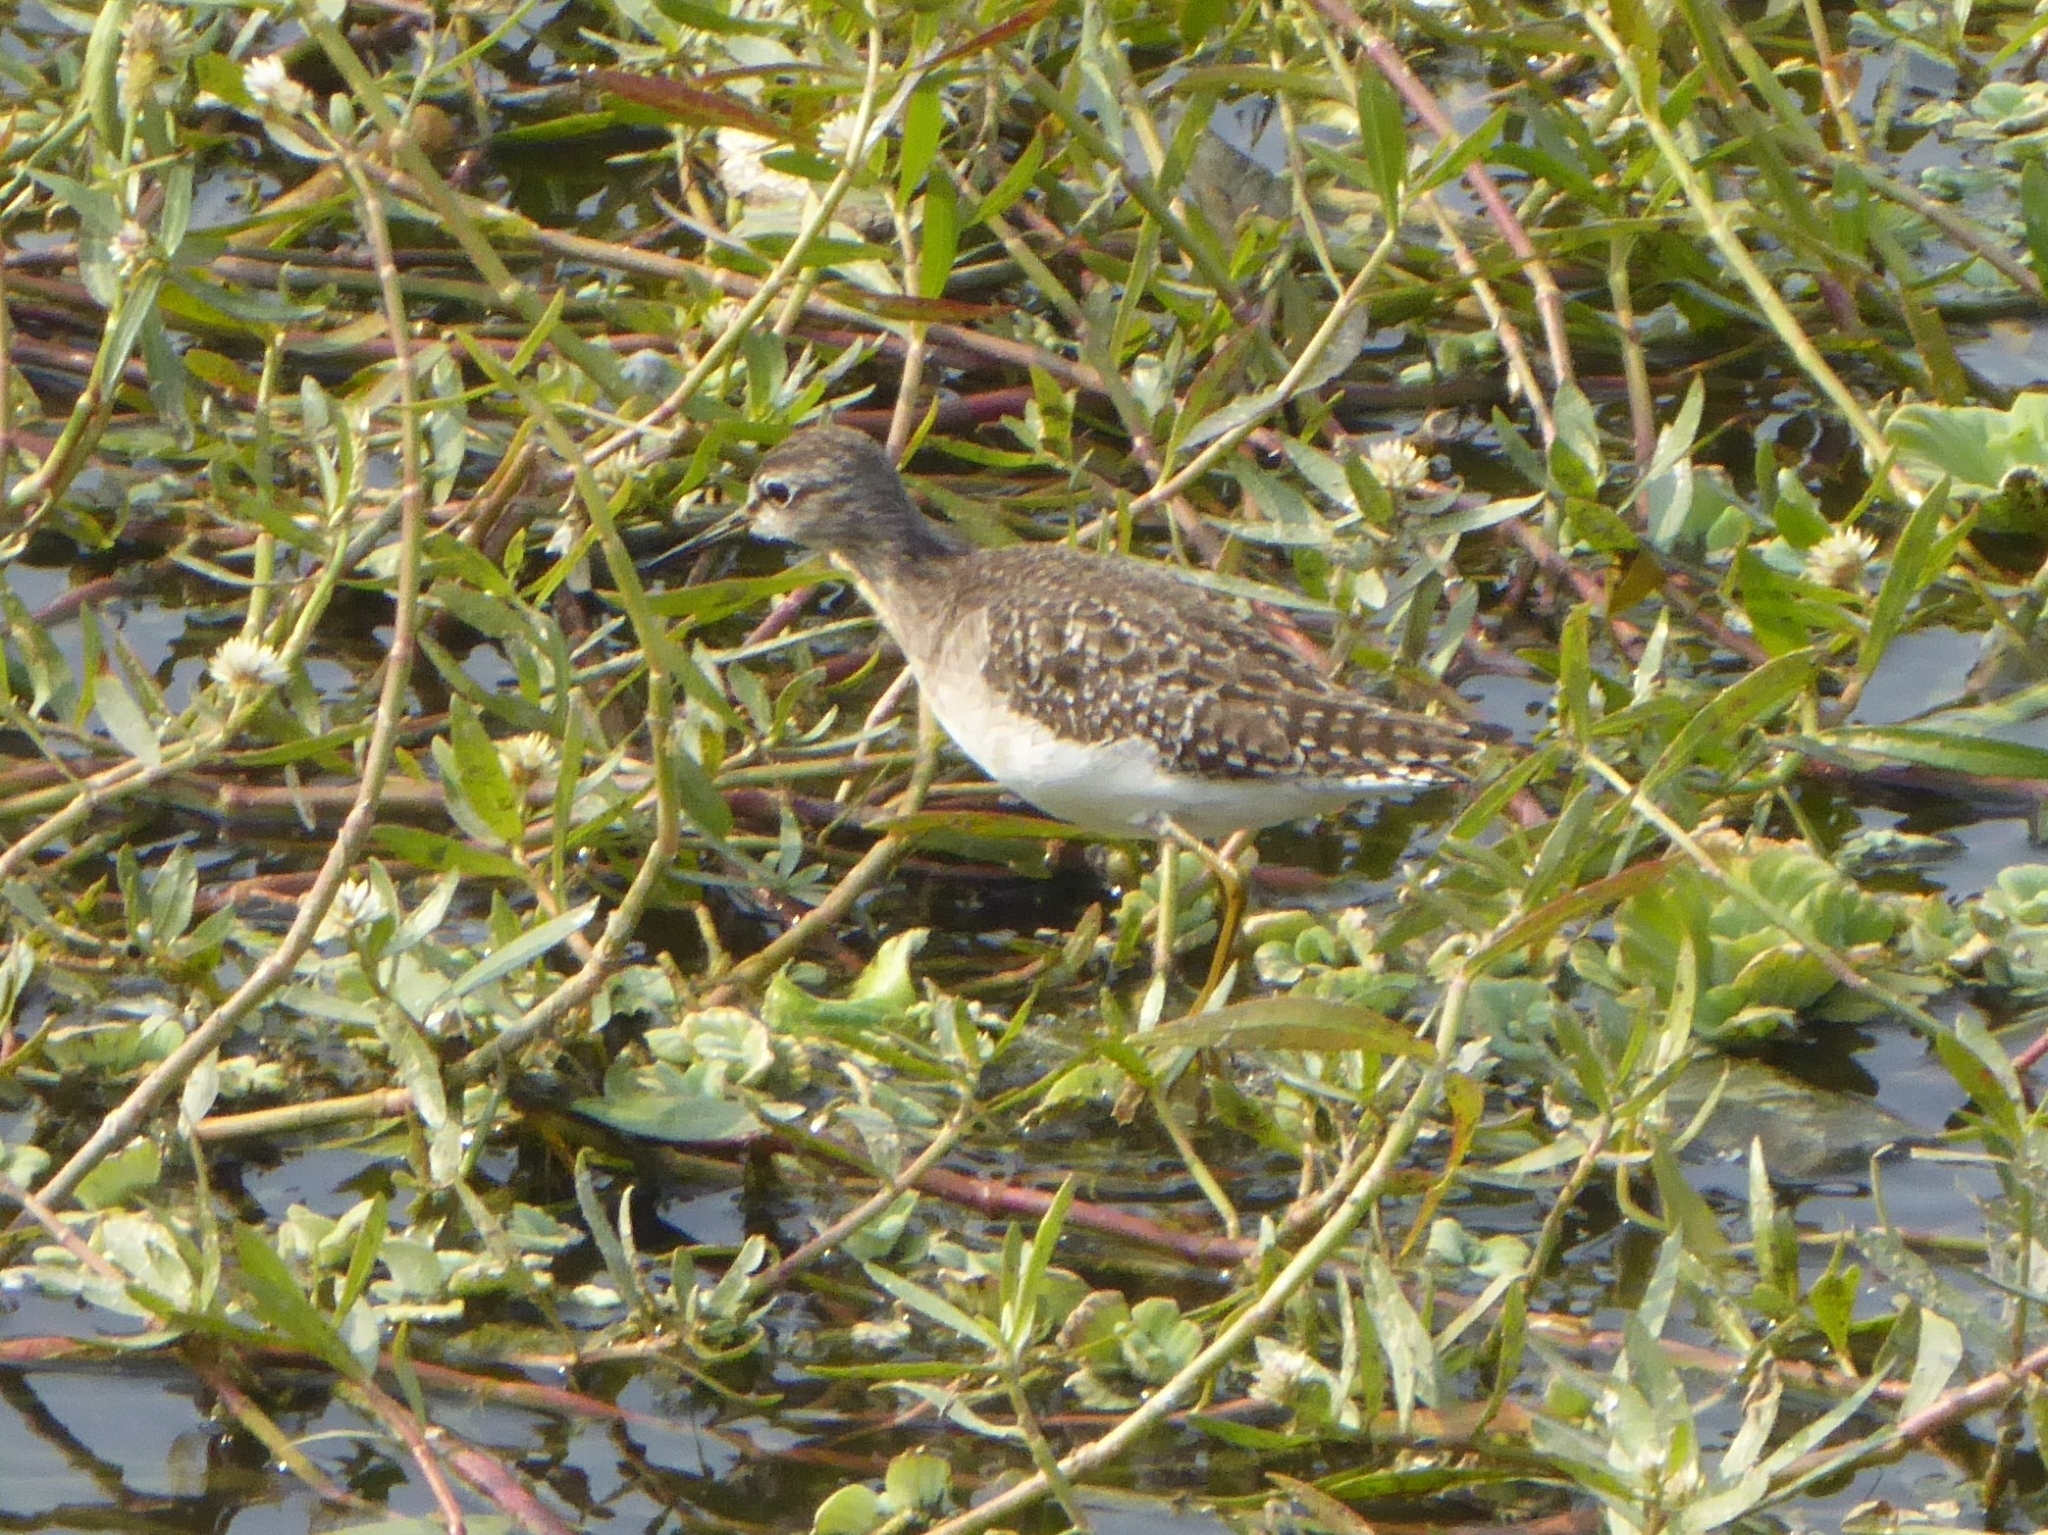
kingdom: Animalia
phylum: Chordata
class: Aves
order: Charadriiformes
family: Scolopacidae
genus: Tringa
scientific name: Tringa glareola
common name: Wood sandpiper
